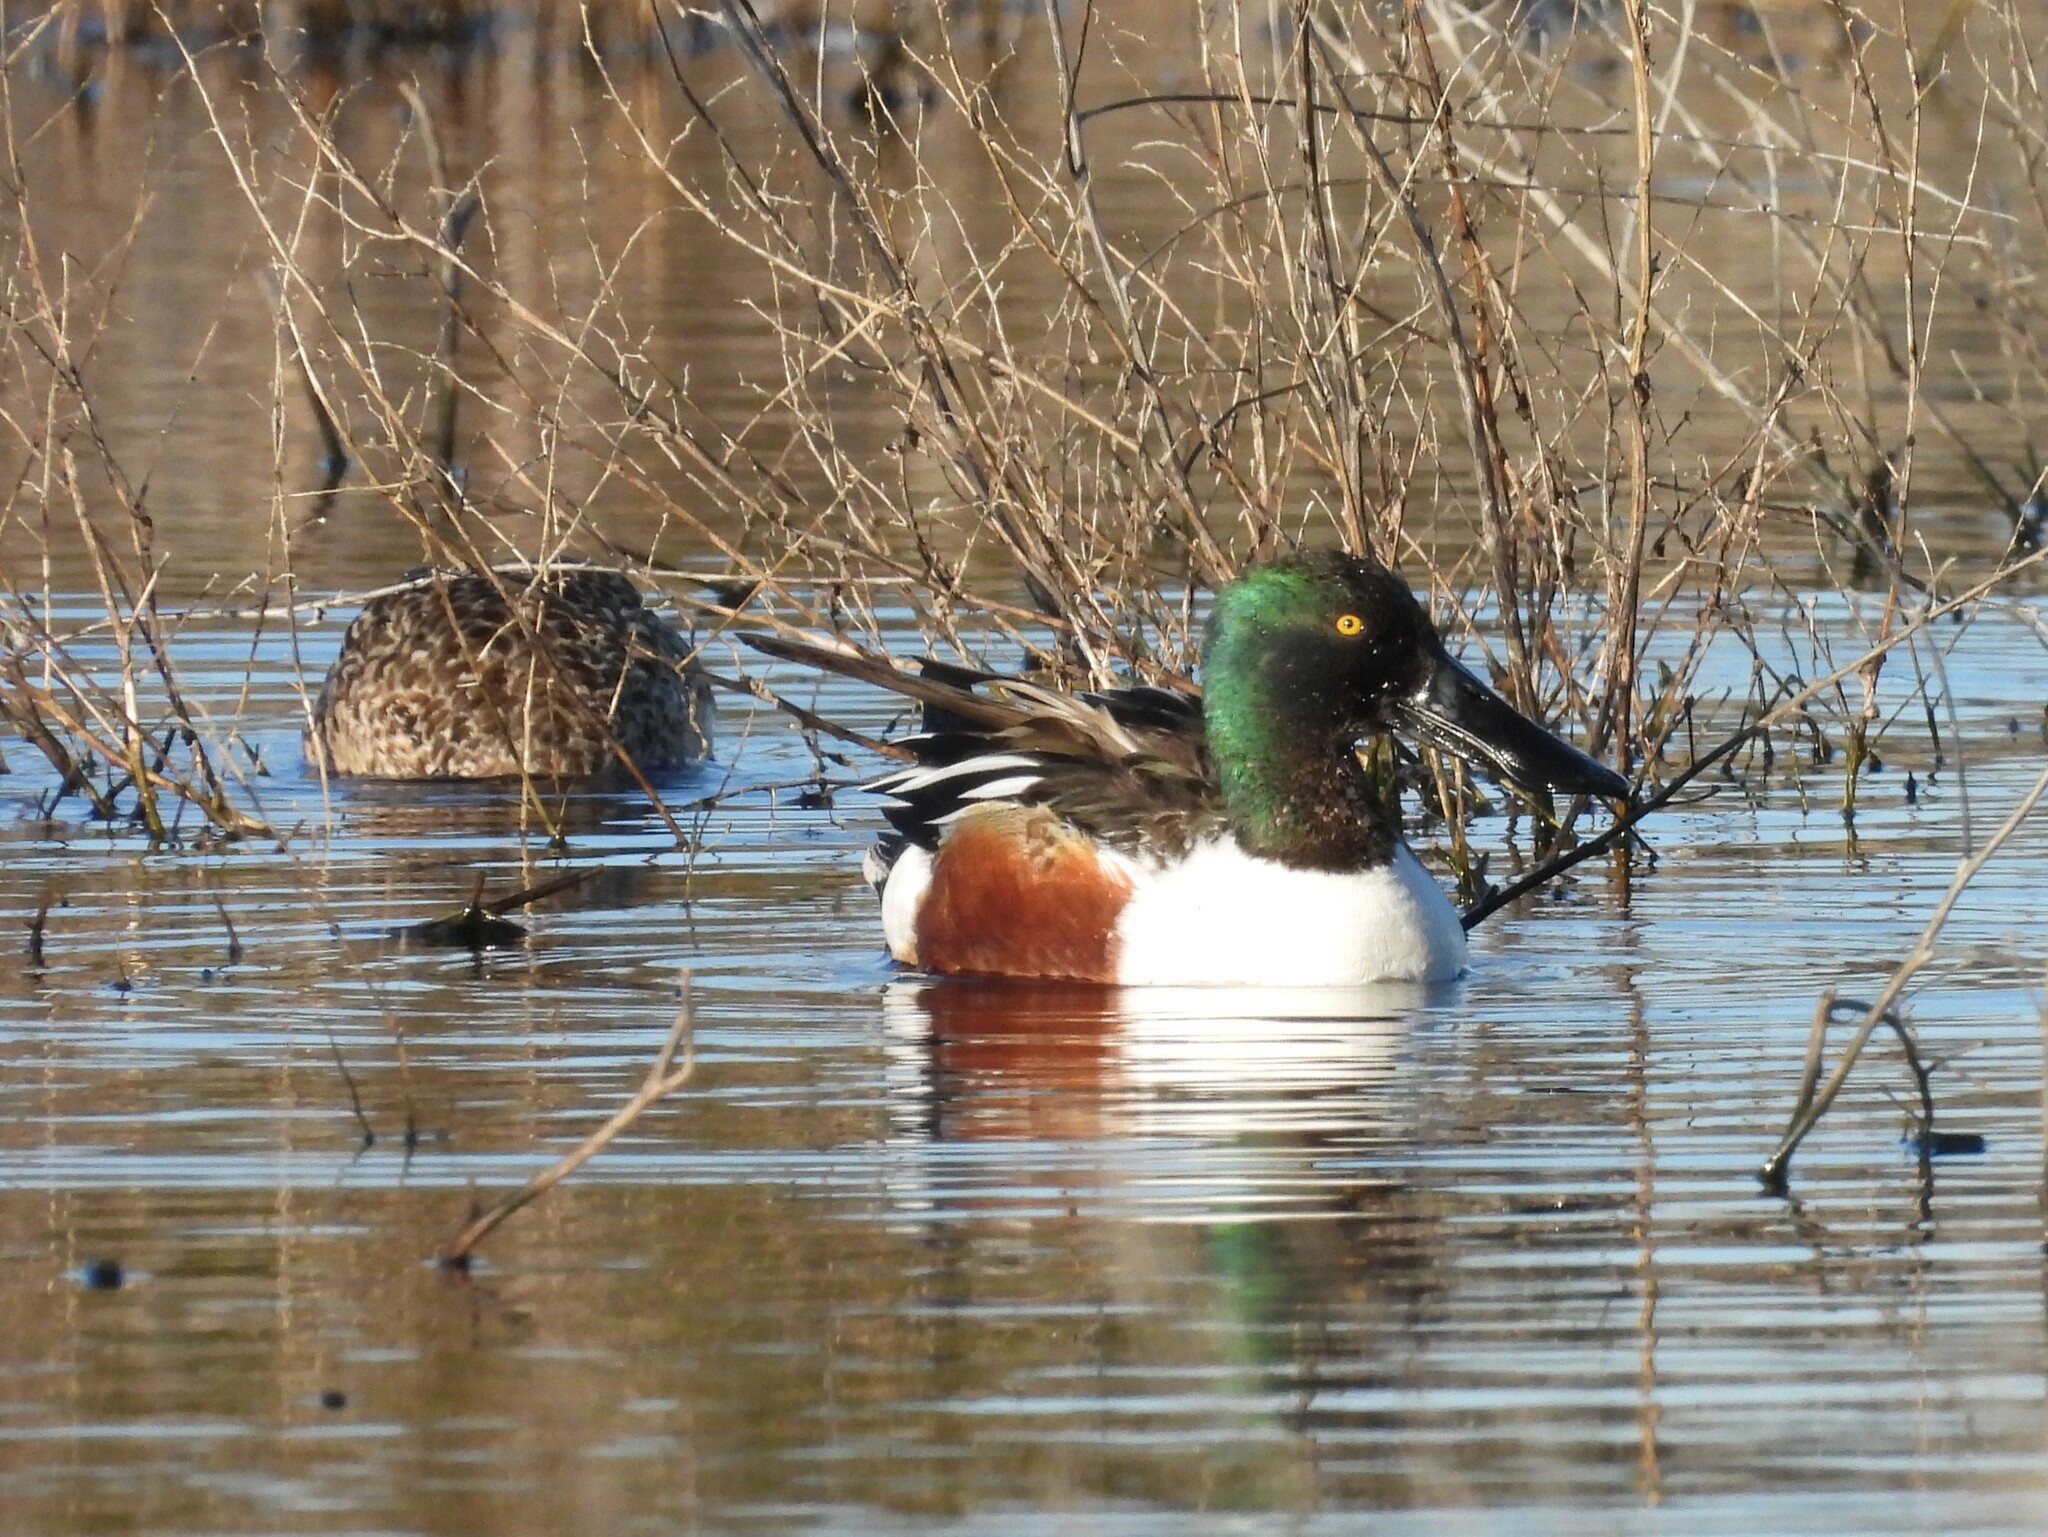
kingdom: Animalia
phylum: Chordata
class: Aves
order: Anseriformes
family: Anatidae
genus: Spatula
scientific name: Spatula clypeata
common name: Northern shoveler
